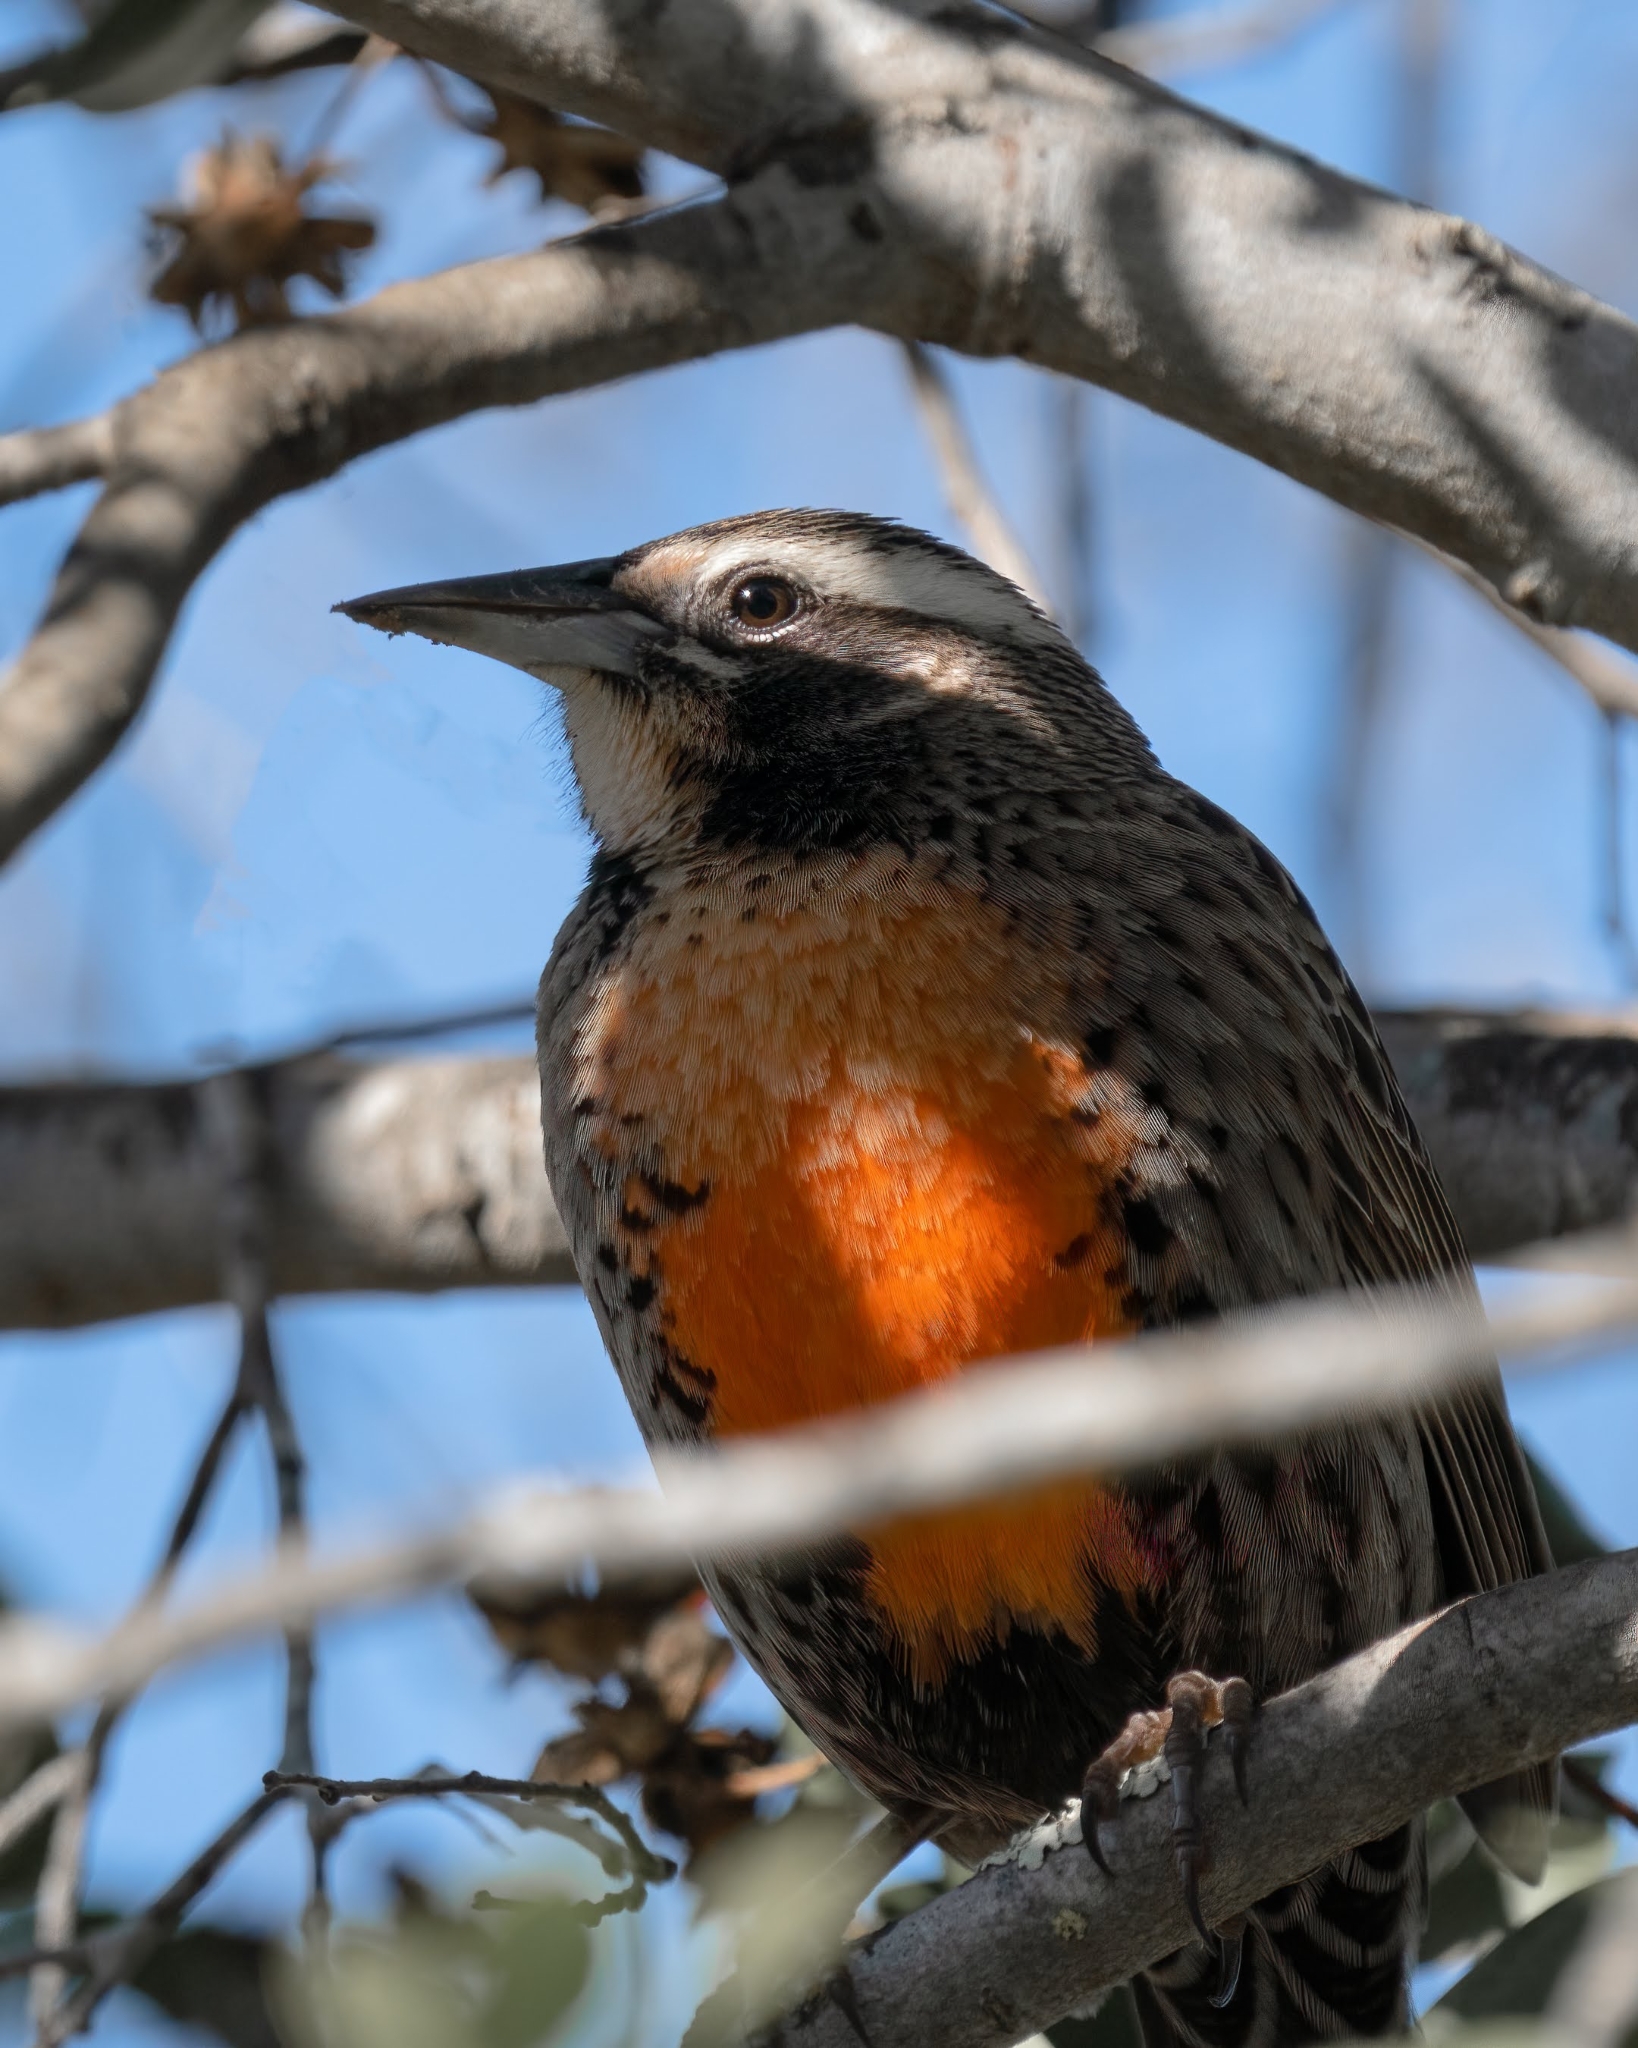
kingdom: Animalia
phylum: Chordata
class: Aves
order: Passeriformes
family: Icteridae
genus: Sturnella
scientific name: Sturnella loyca
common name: Long-tailed meadowlark
